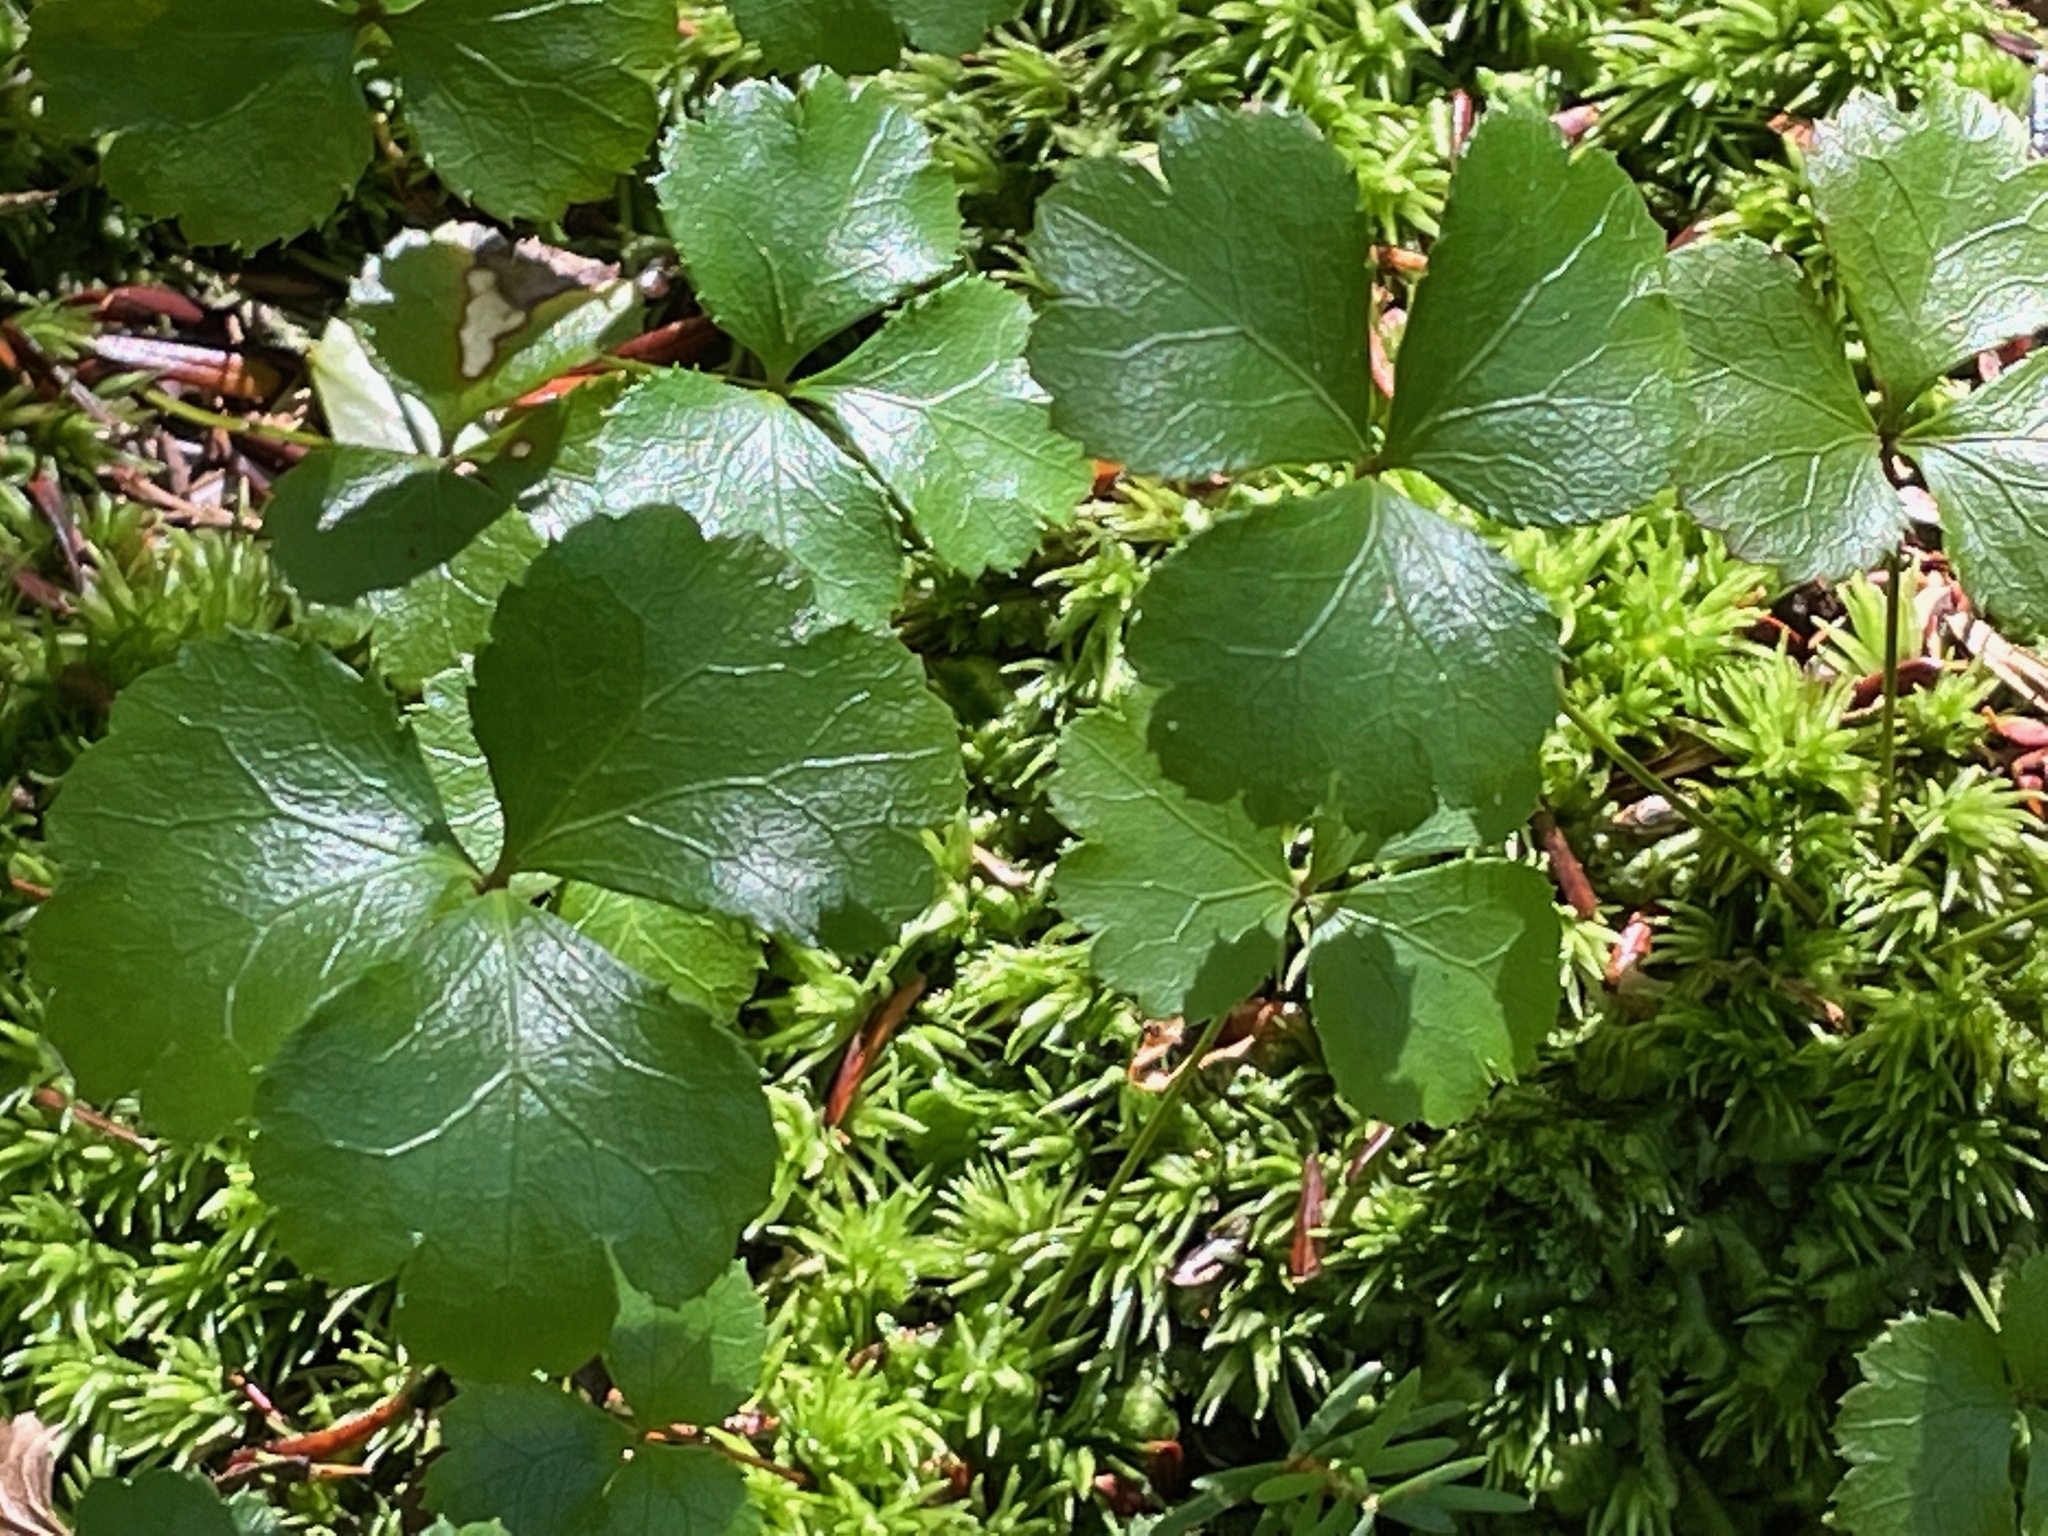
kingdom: Plantae
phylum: Tracheophyta
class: Magnoliopsida
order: Ranunculales
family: Ranunculaceae
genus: Coptis
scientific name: Coptis trifolia
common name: Canker-root
